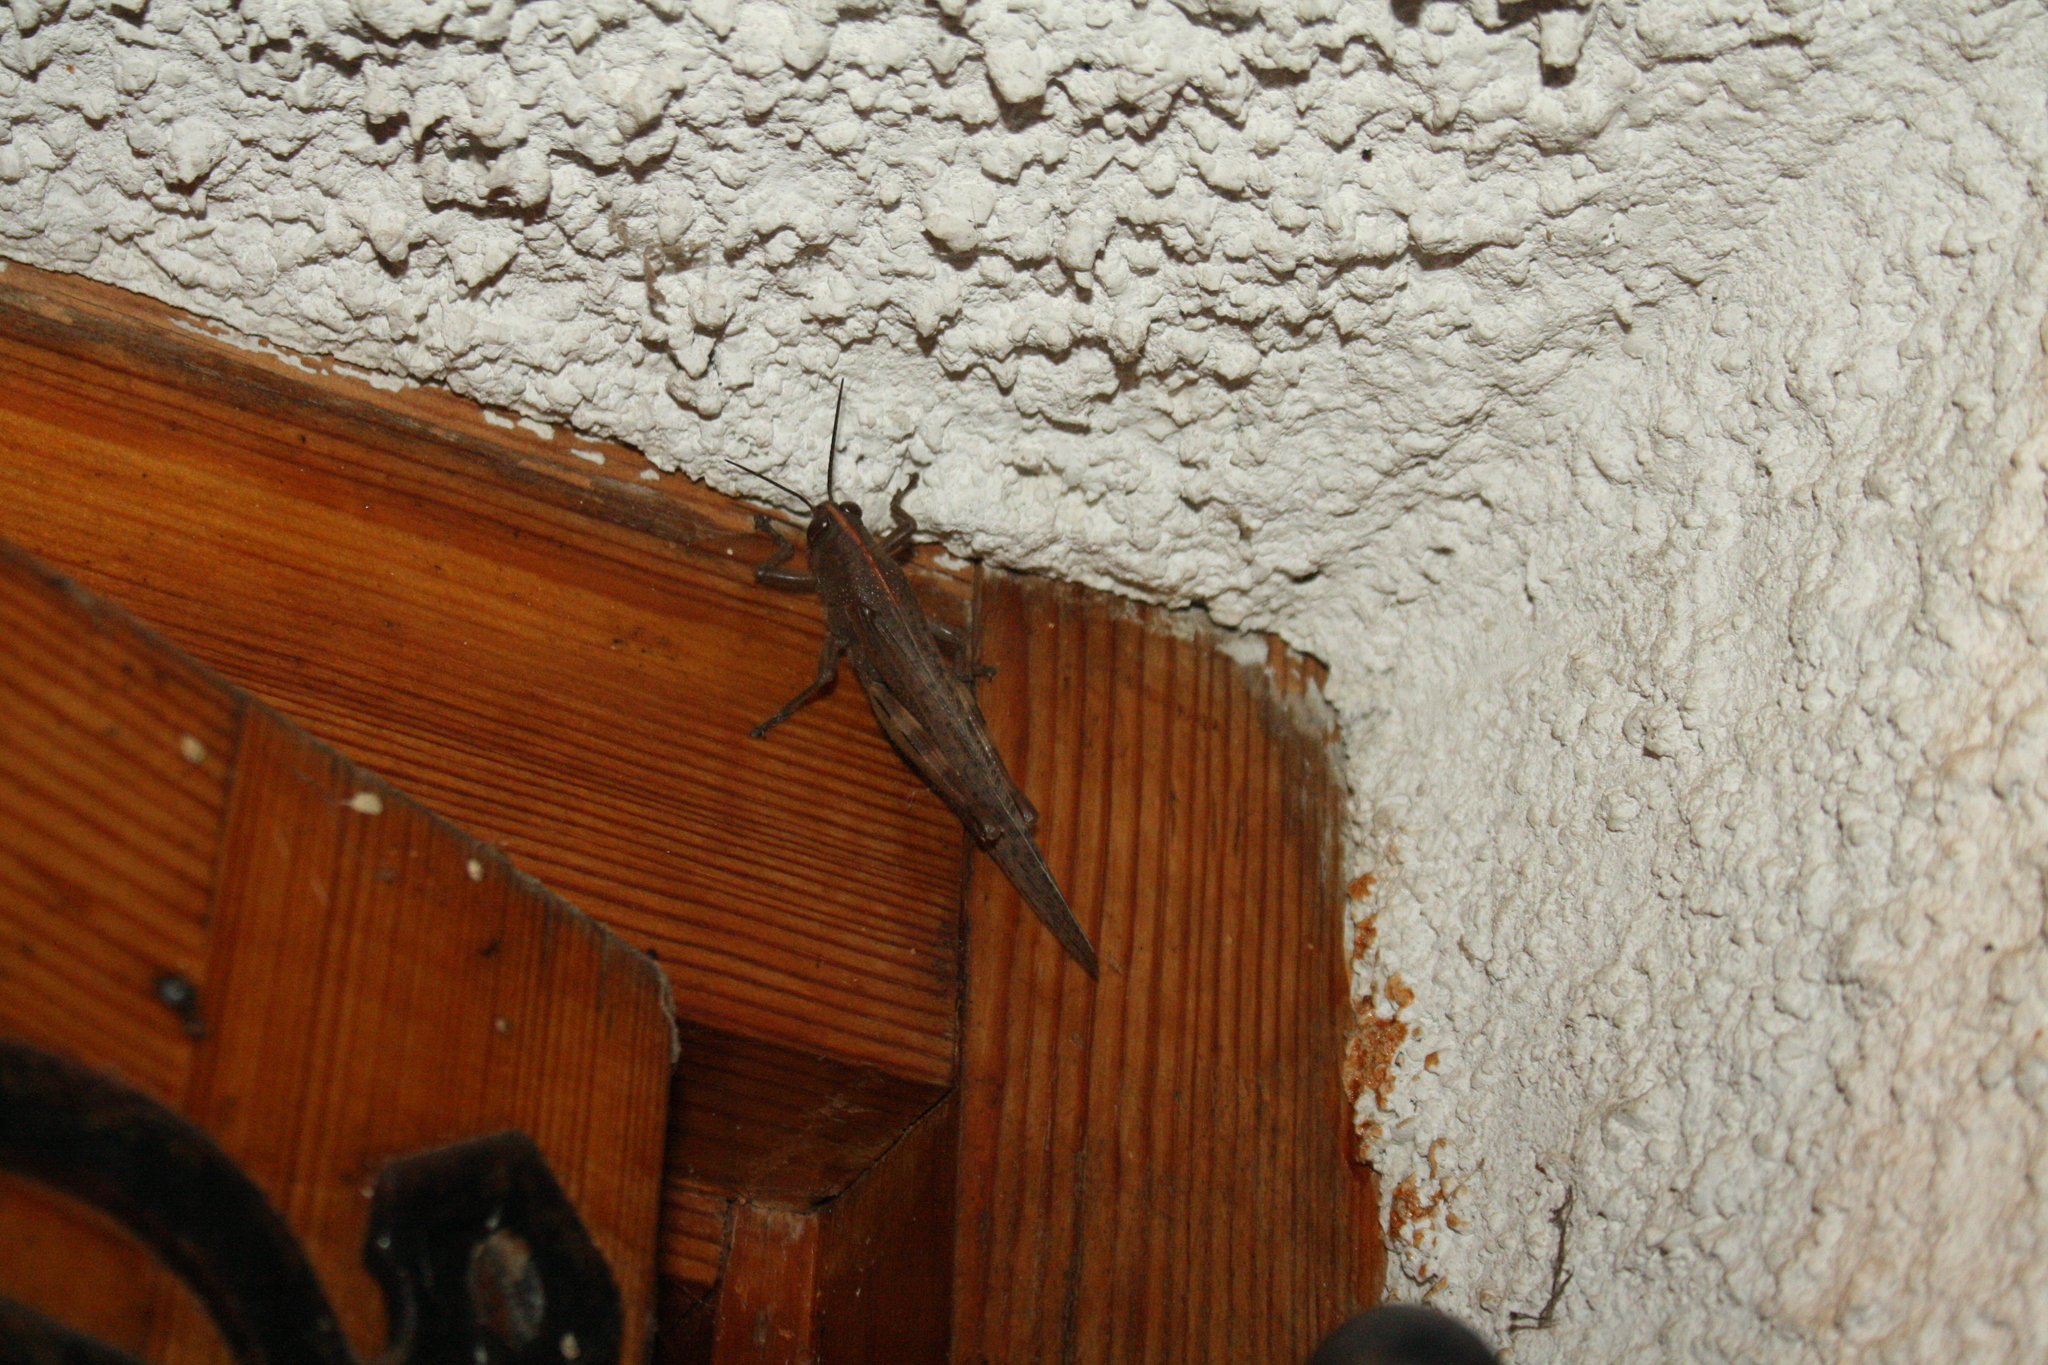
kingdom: Animalia
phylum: Arthropoda
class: Insecta
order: Orthoptera
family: Acrididae
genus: Anacridium
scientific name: Anacridium aegyptium
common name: Egyptian grasshopper
